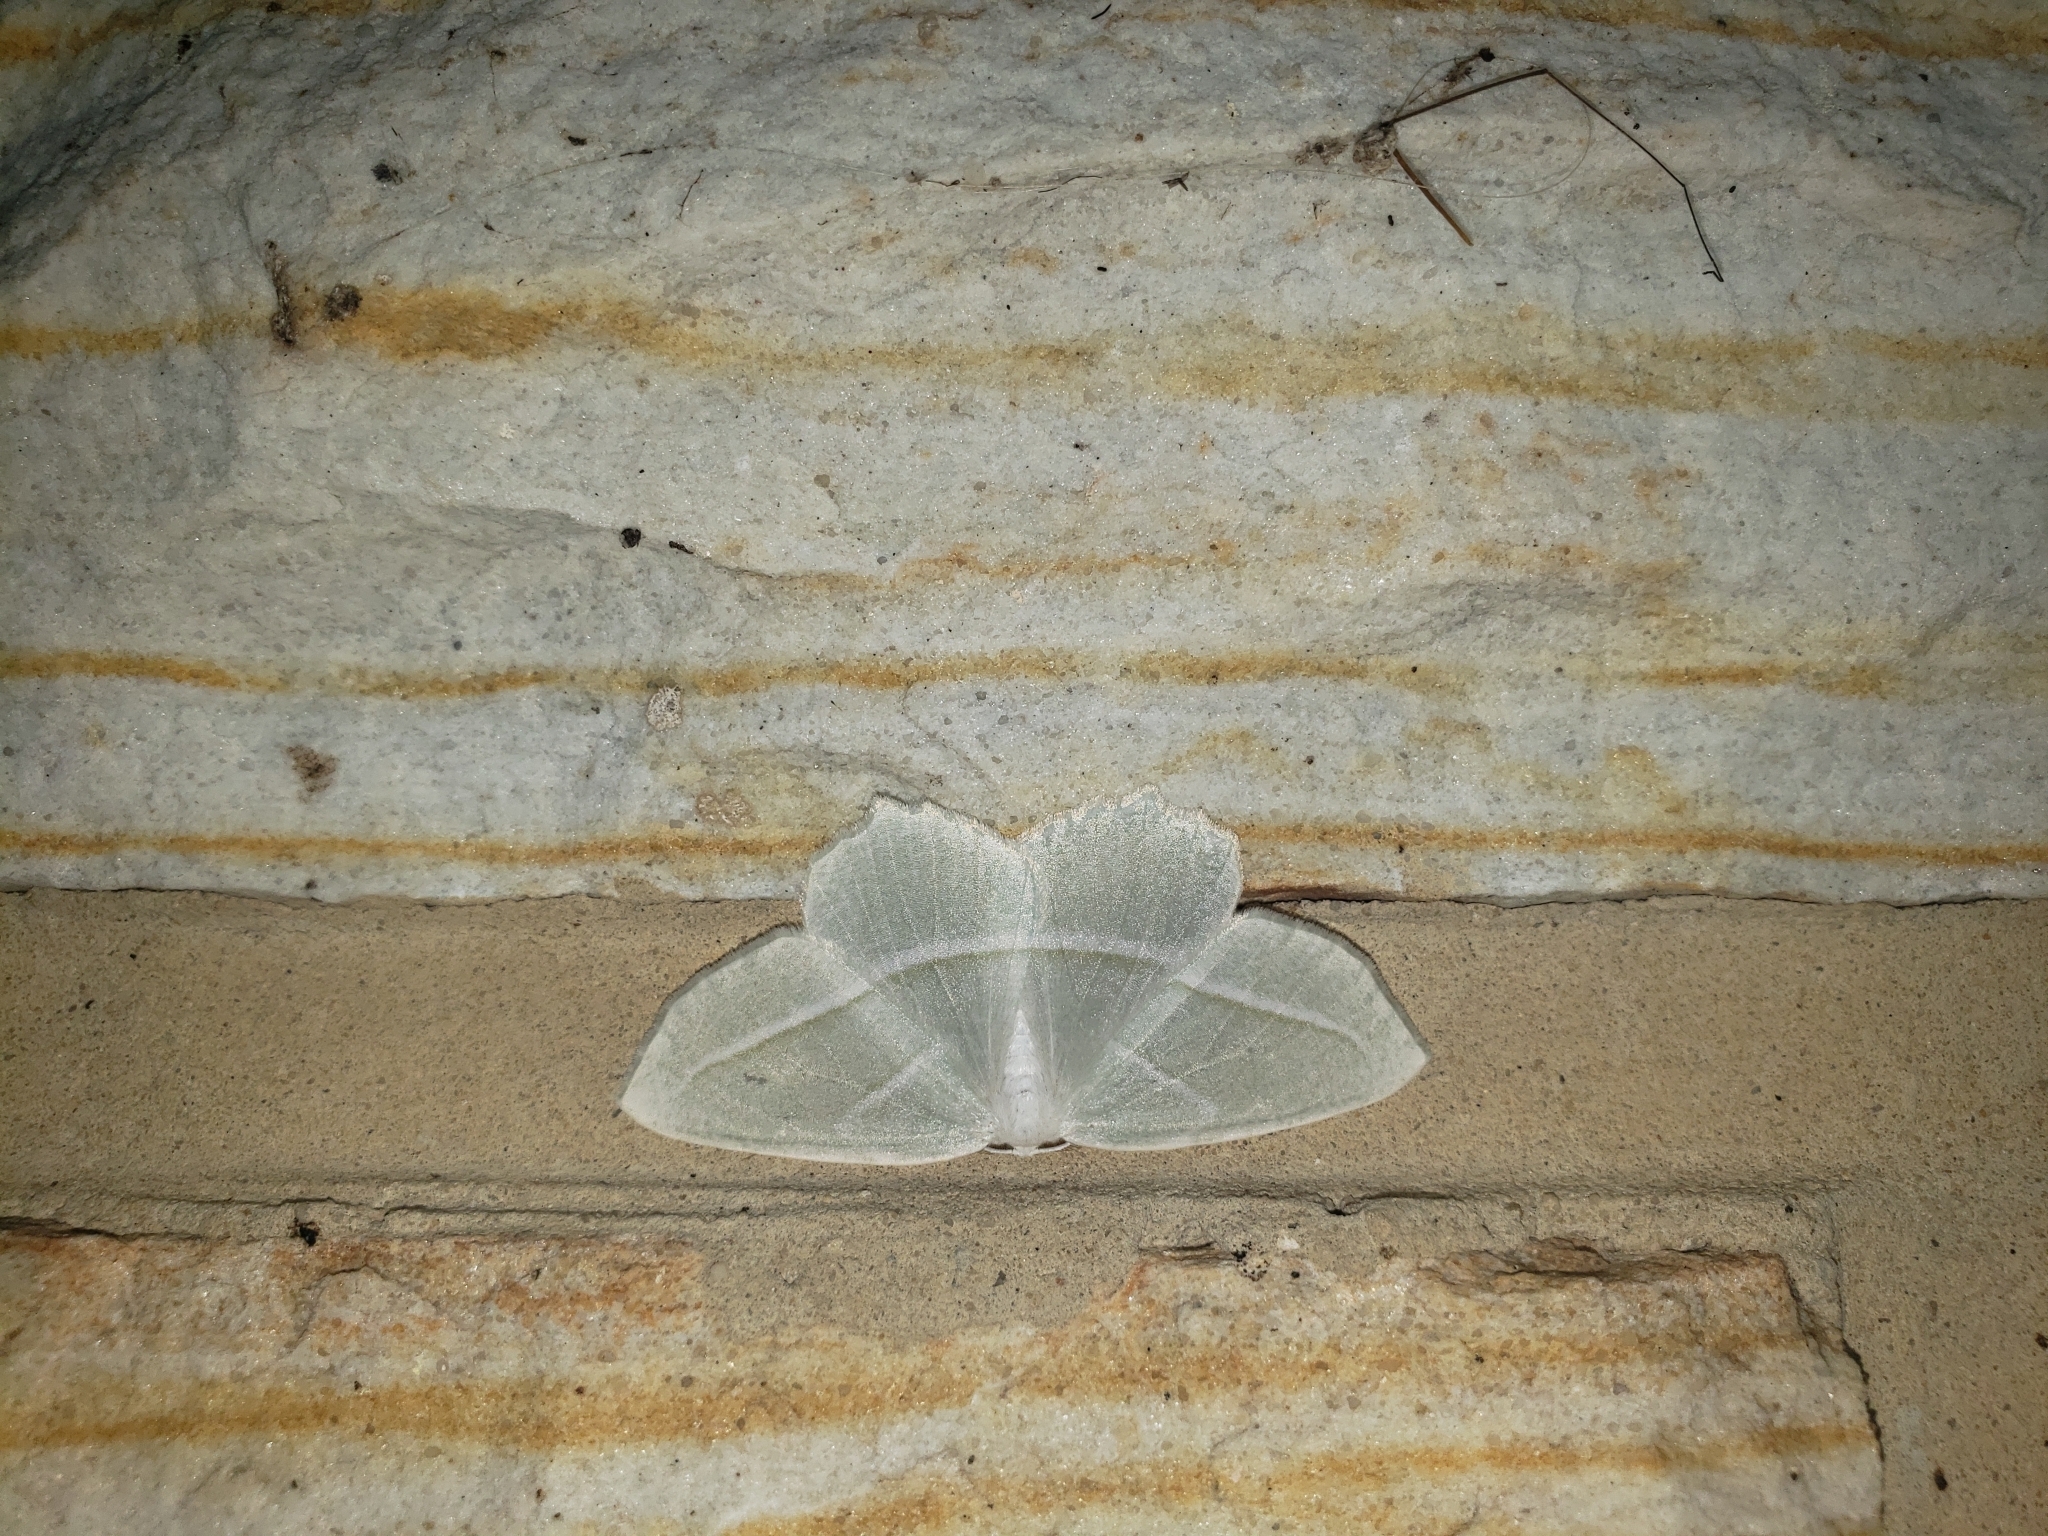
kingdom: Animalia
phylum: Arthropoda
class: Insecta
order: Lepidoptera
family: Geometridae
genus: Campaea
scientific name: Campaea perlata
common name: Fringed looper
